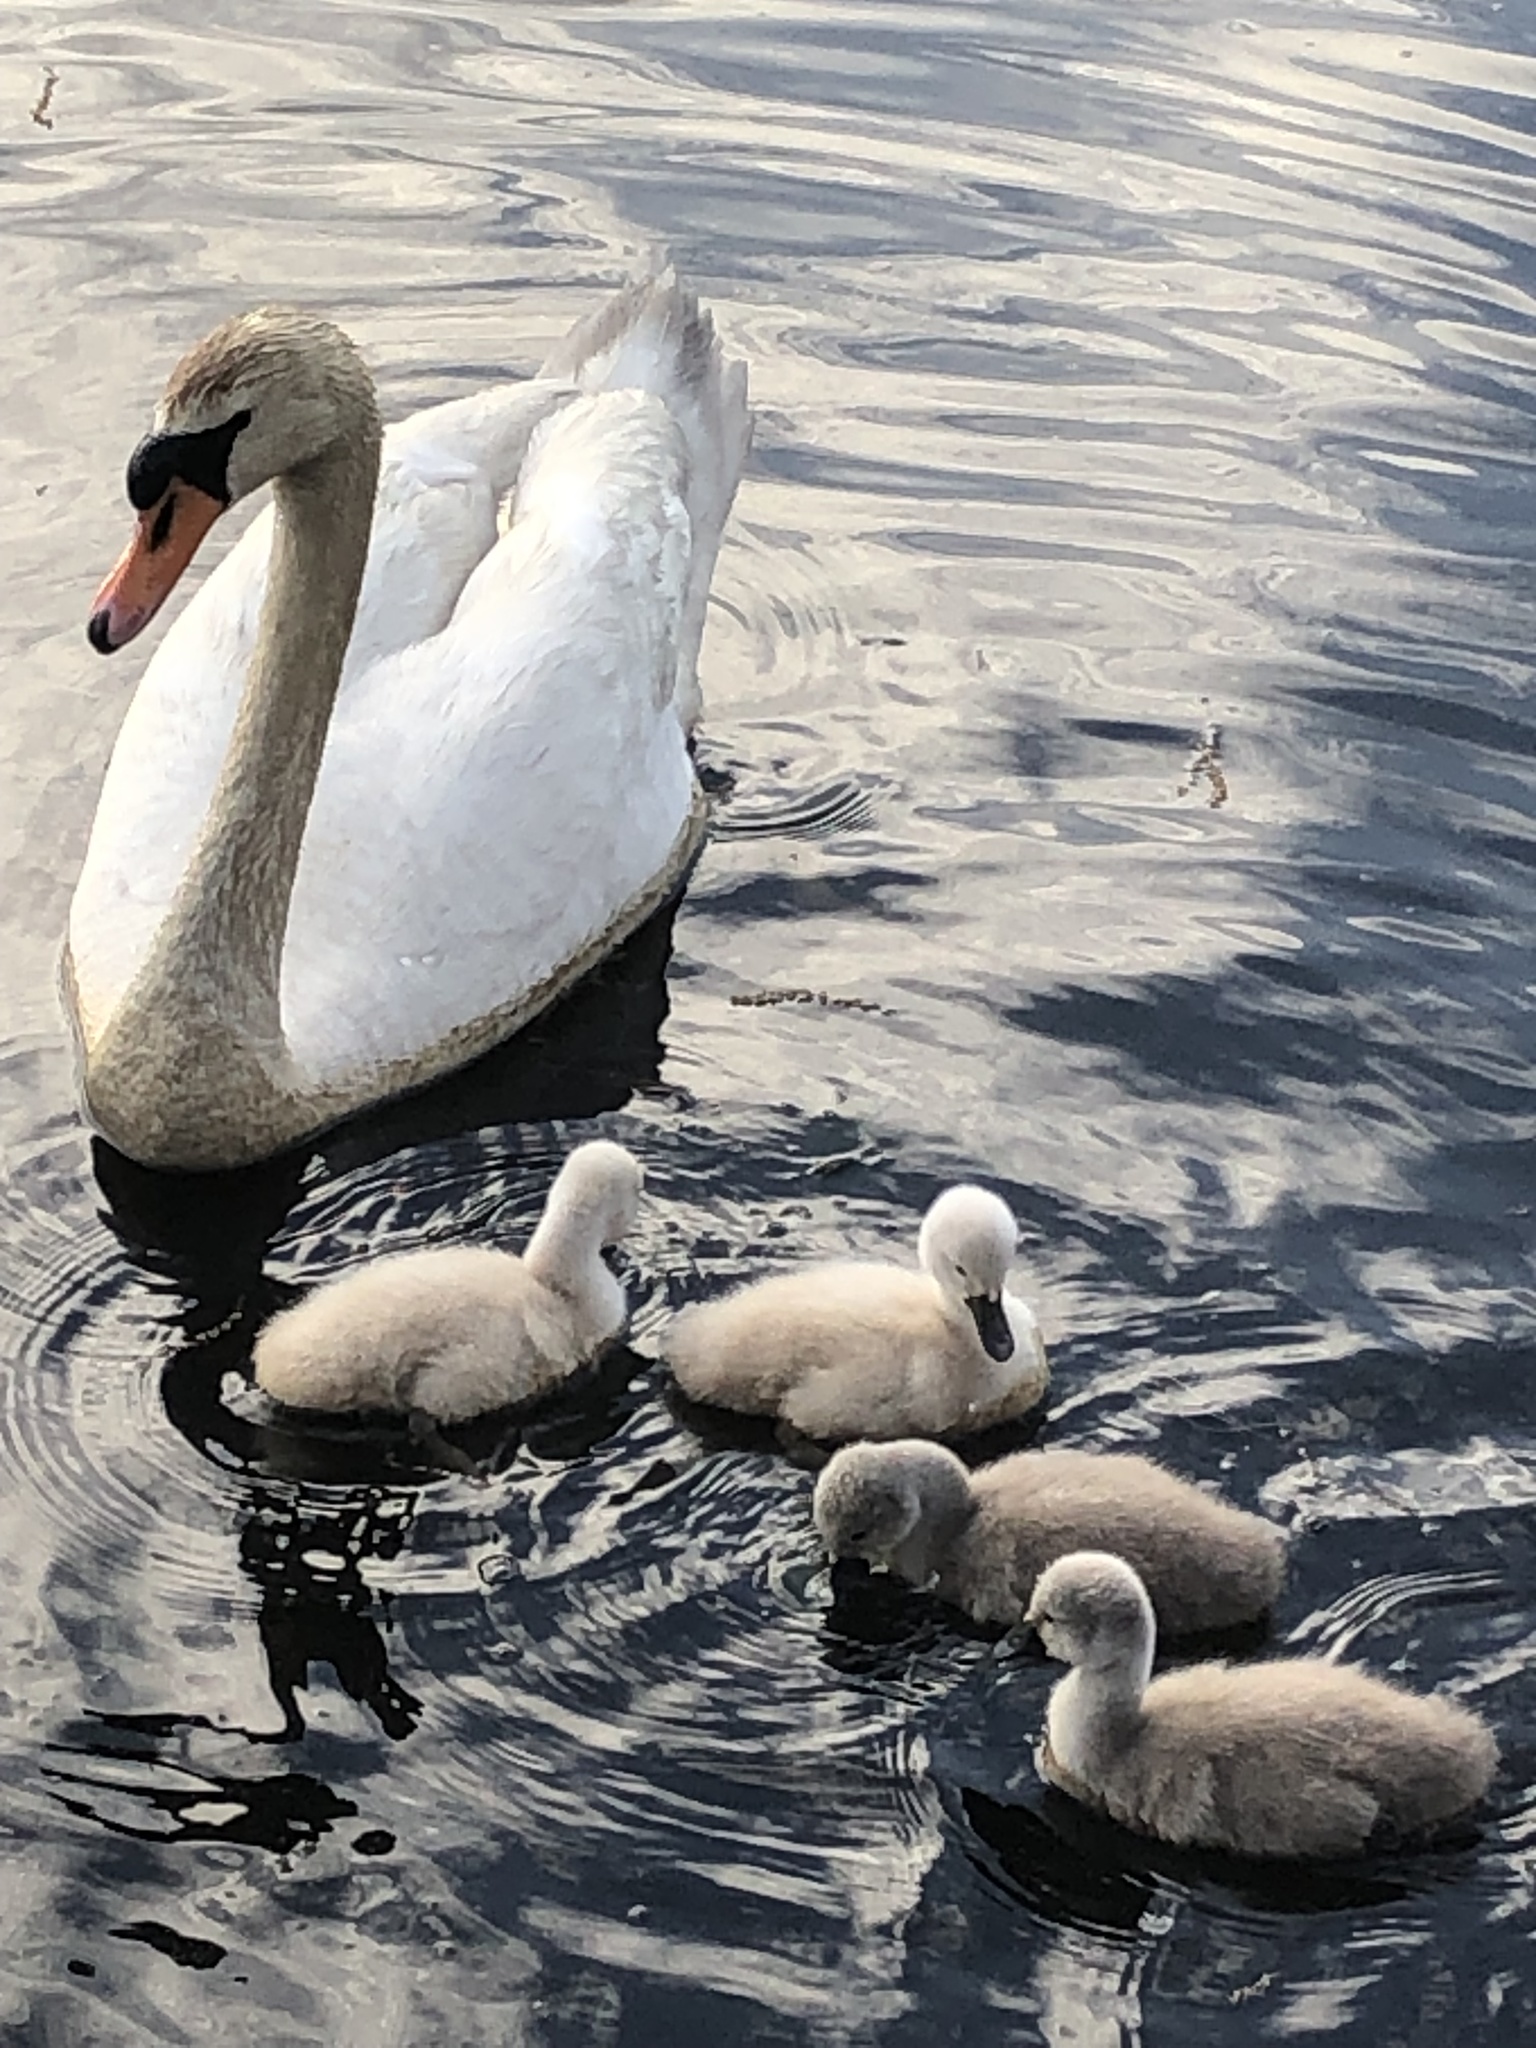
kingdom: Animalia
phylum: Chordata
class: Aves
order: Anseriformes
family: Anatidae
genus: Cygnus
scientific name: Cygnus olor
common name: Mute swan
